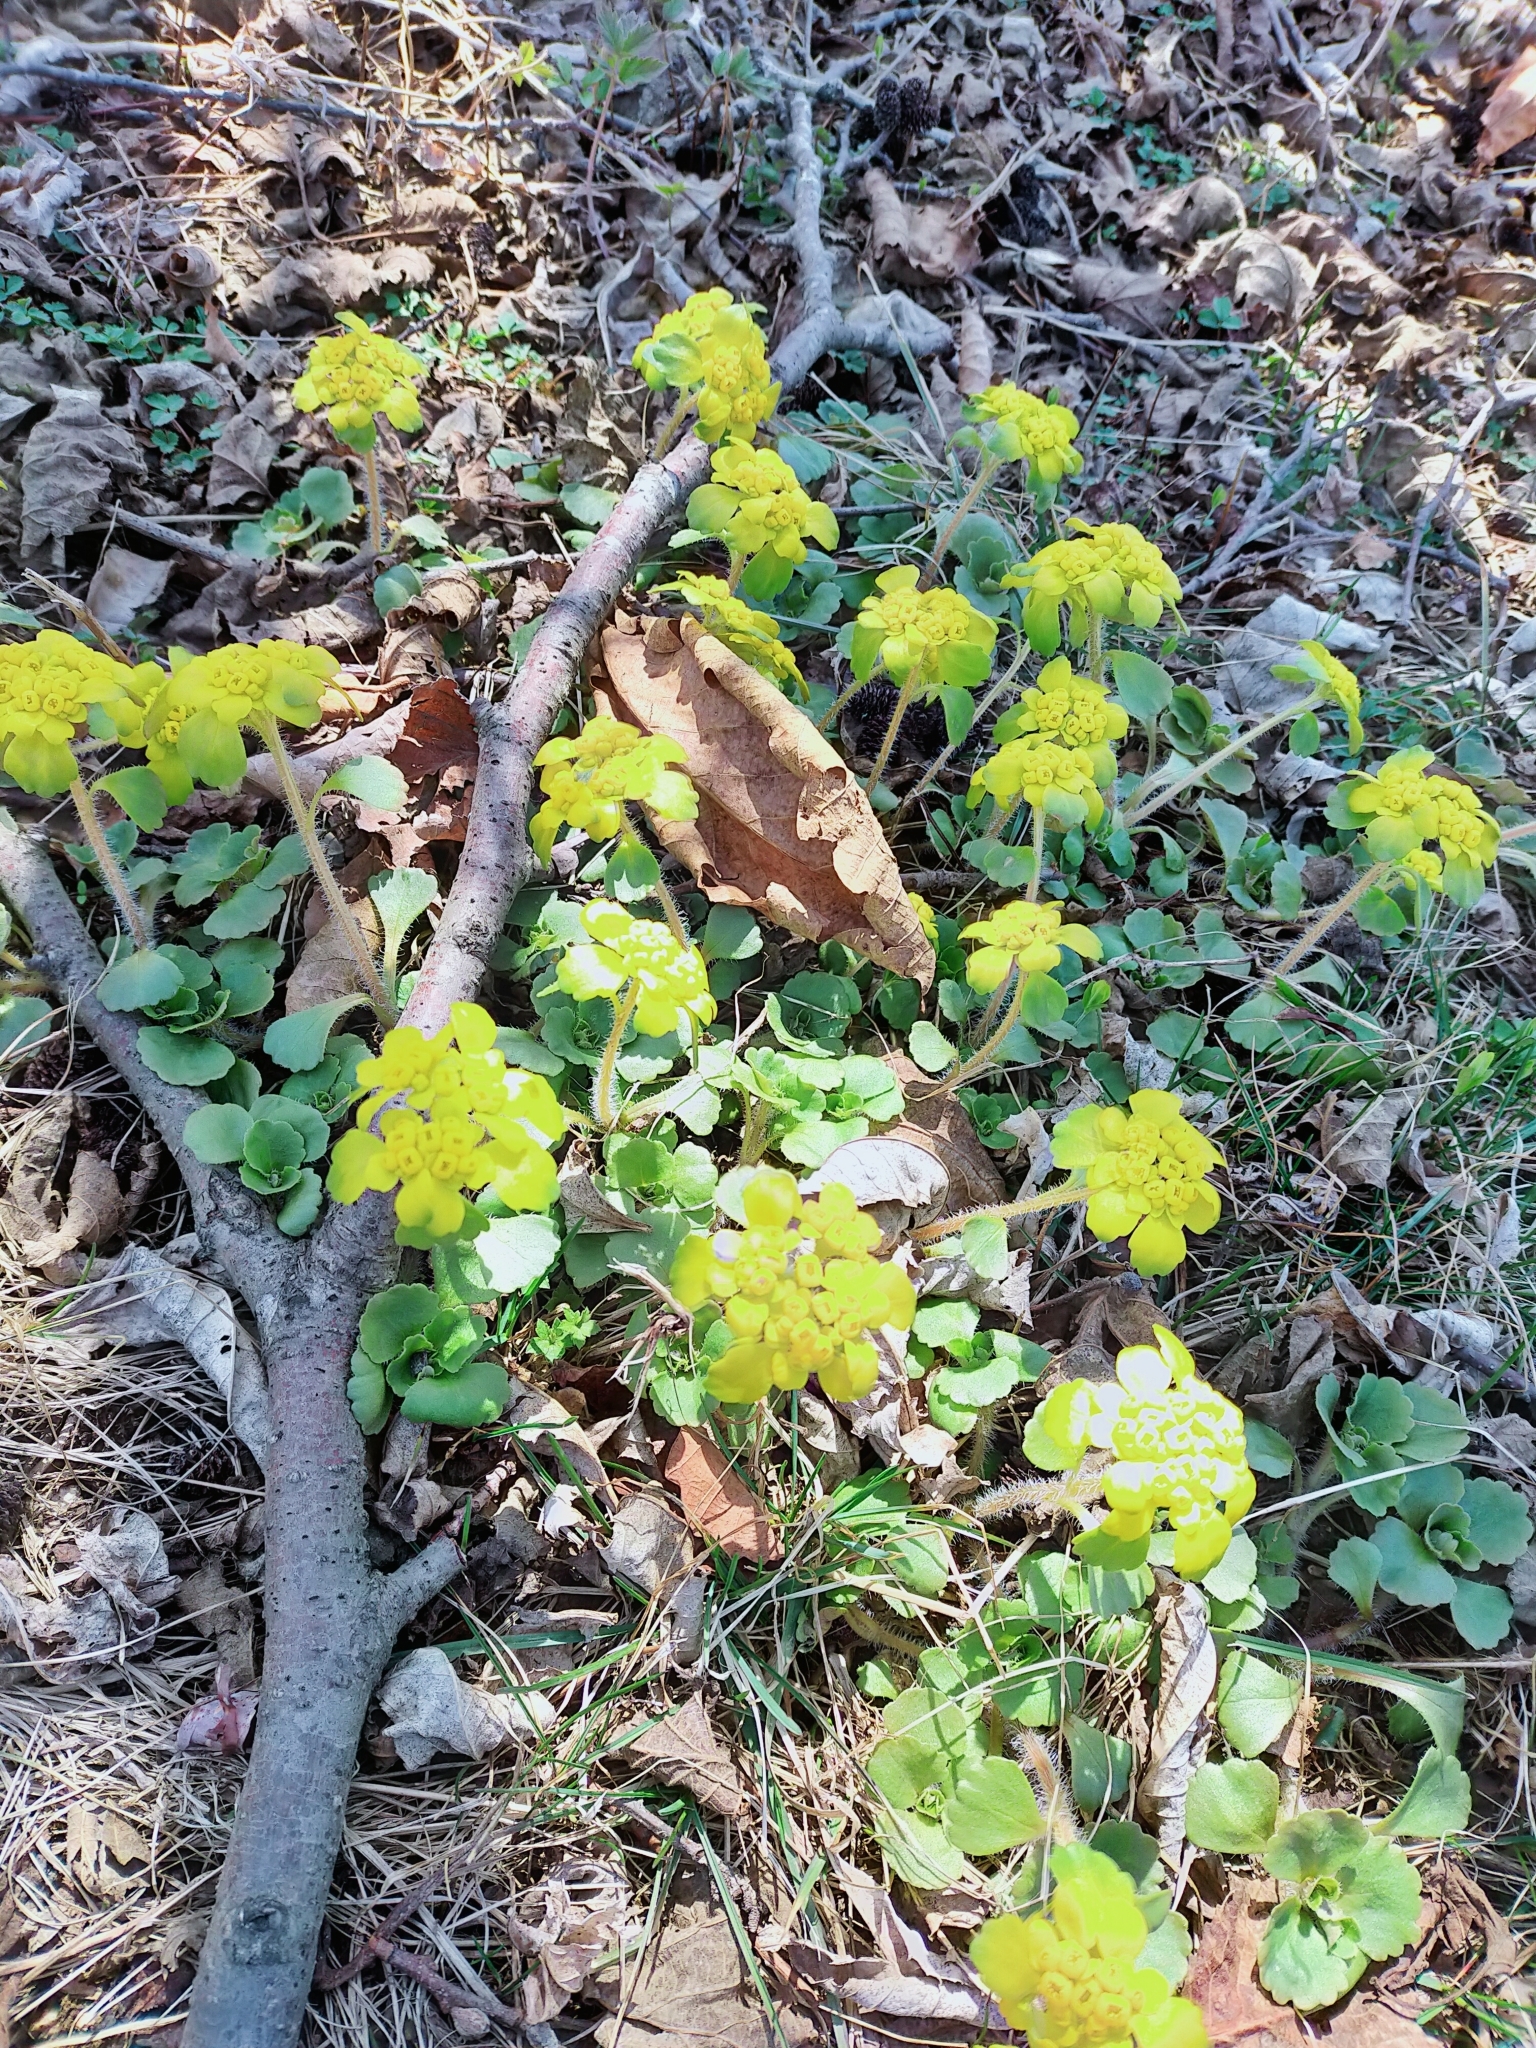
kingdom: Plantae
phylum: Tracheophyta
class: Magnoliopsida
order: Saxifragales
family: Saxifragaceae
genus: Chrysosplenium
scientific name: Chrysosplenium pilosum
